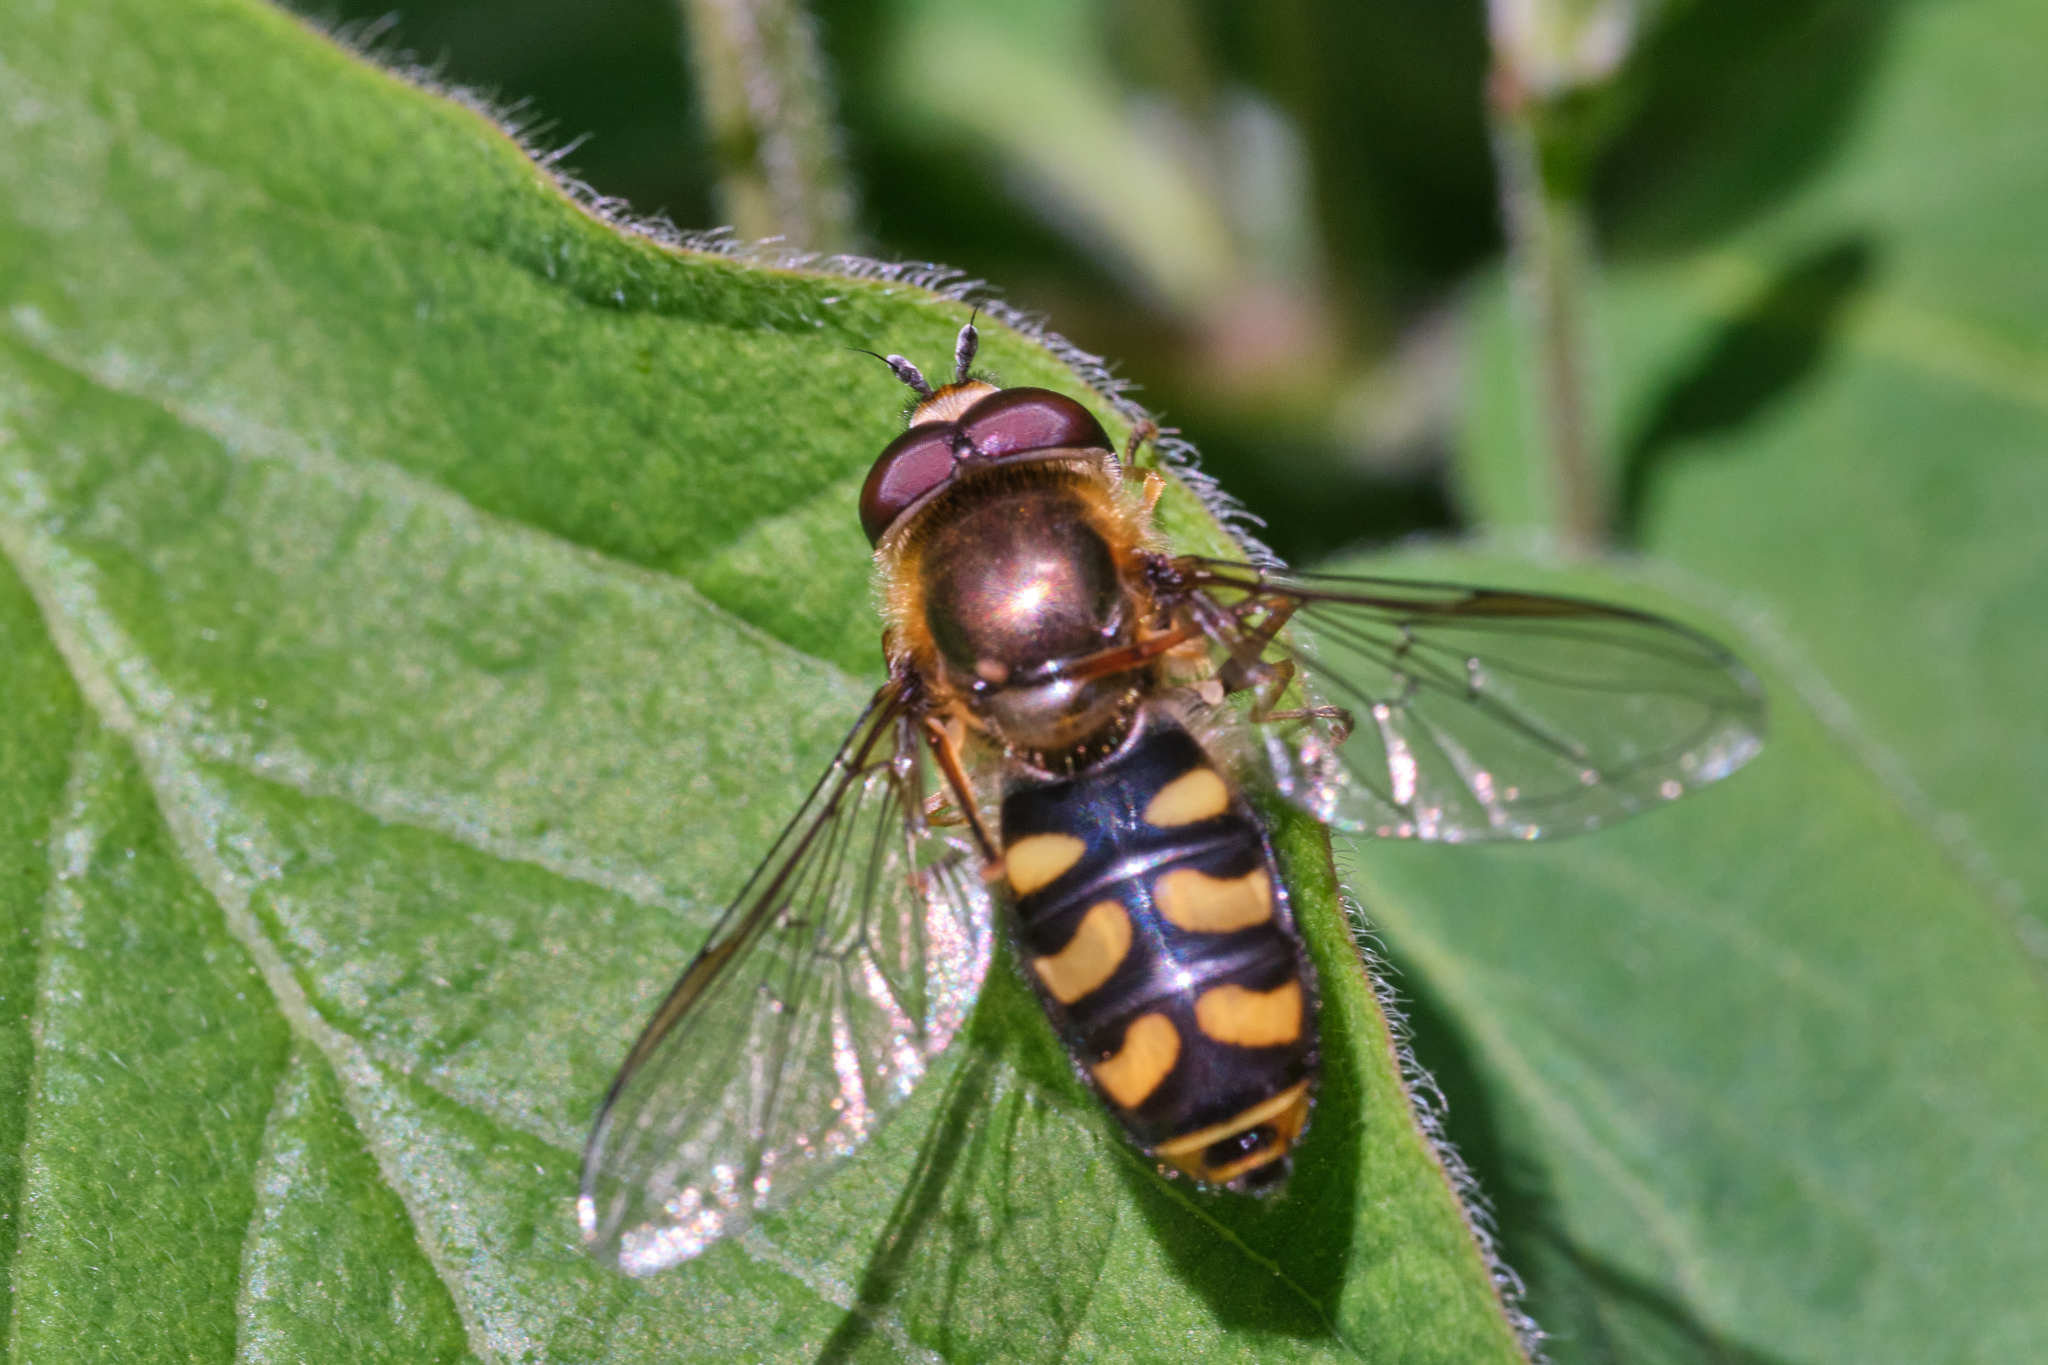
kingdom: Animalia
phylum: Arthropoda
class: Insecta
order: Diptera
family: Syrphidae
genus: Eupeodes
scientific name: Eupeodes
